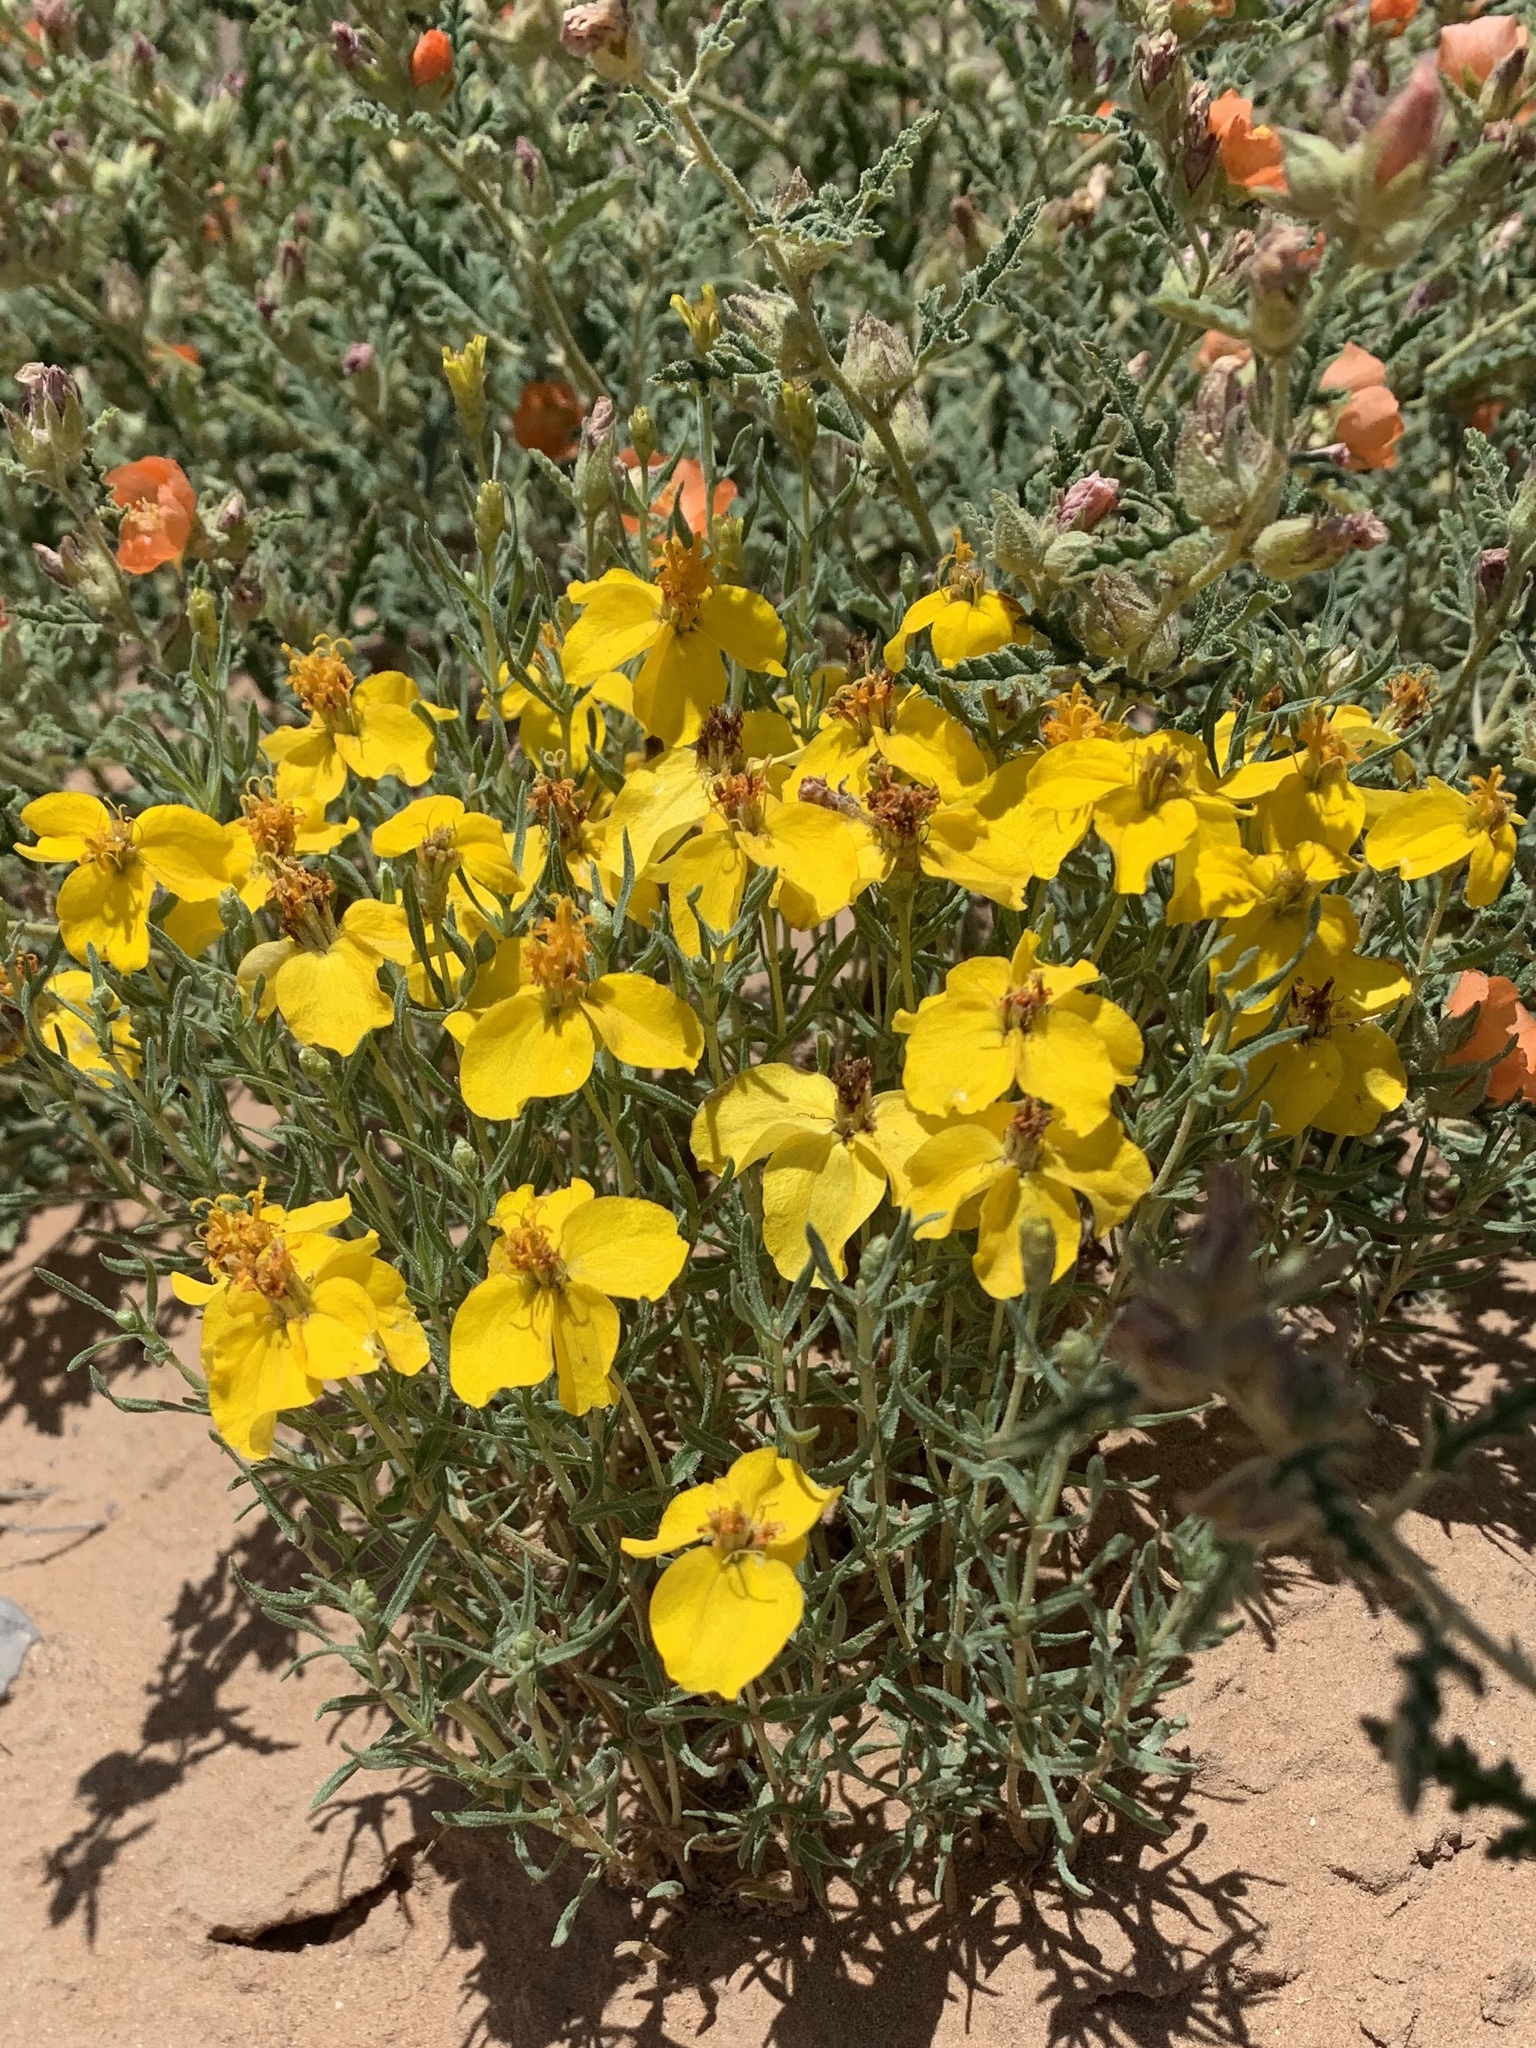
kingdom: Plantae
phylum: Tracheophyta
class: Magnoliopsida
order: Asterales
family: Asteraceae
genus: Zinnia
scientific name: Zinnia grandiflora
